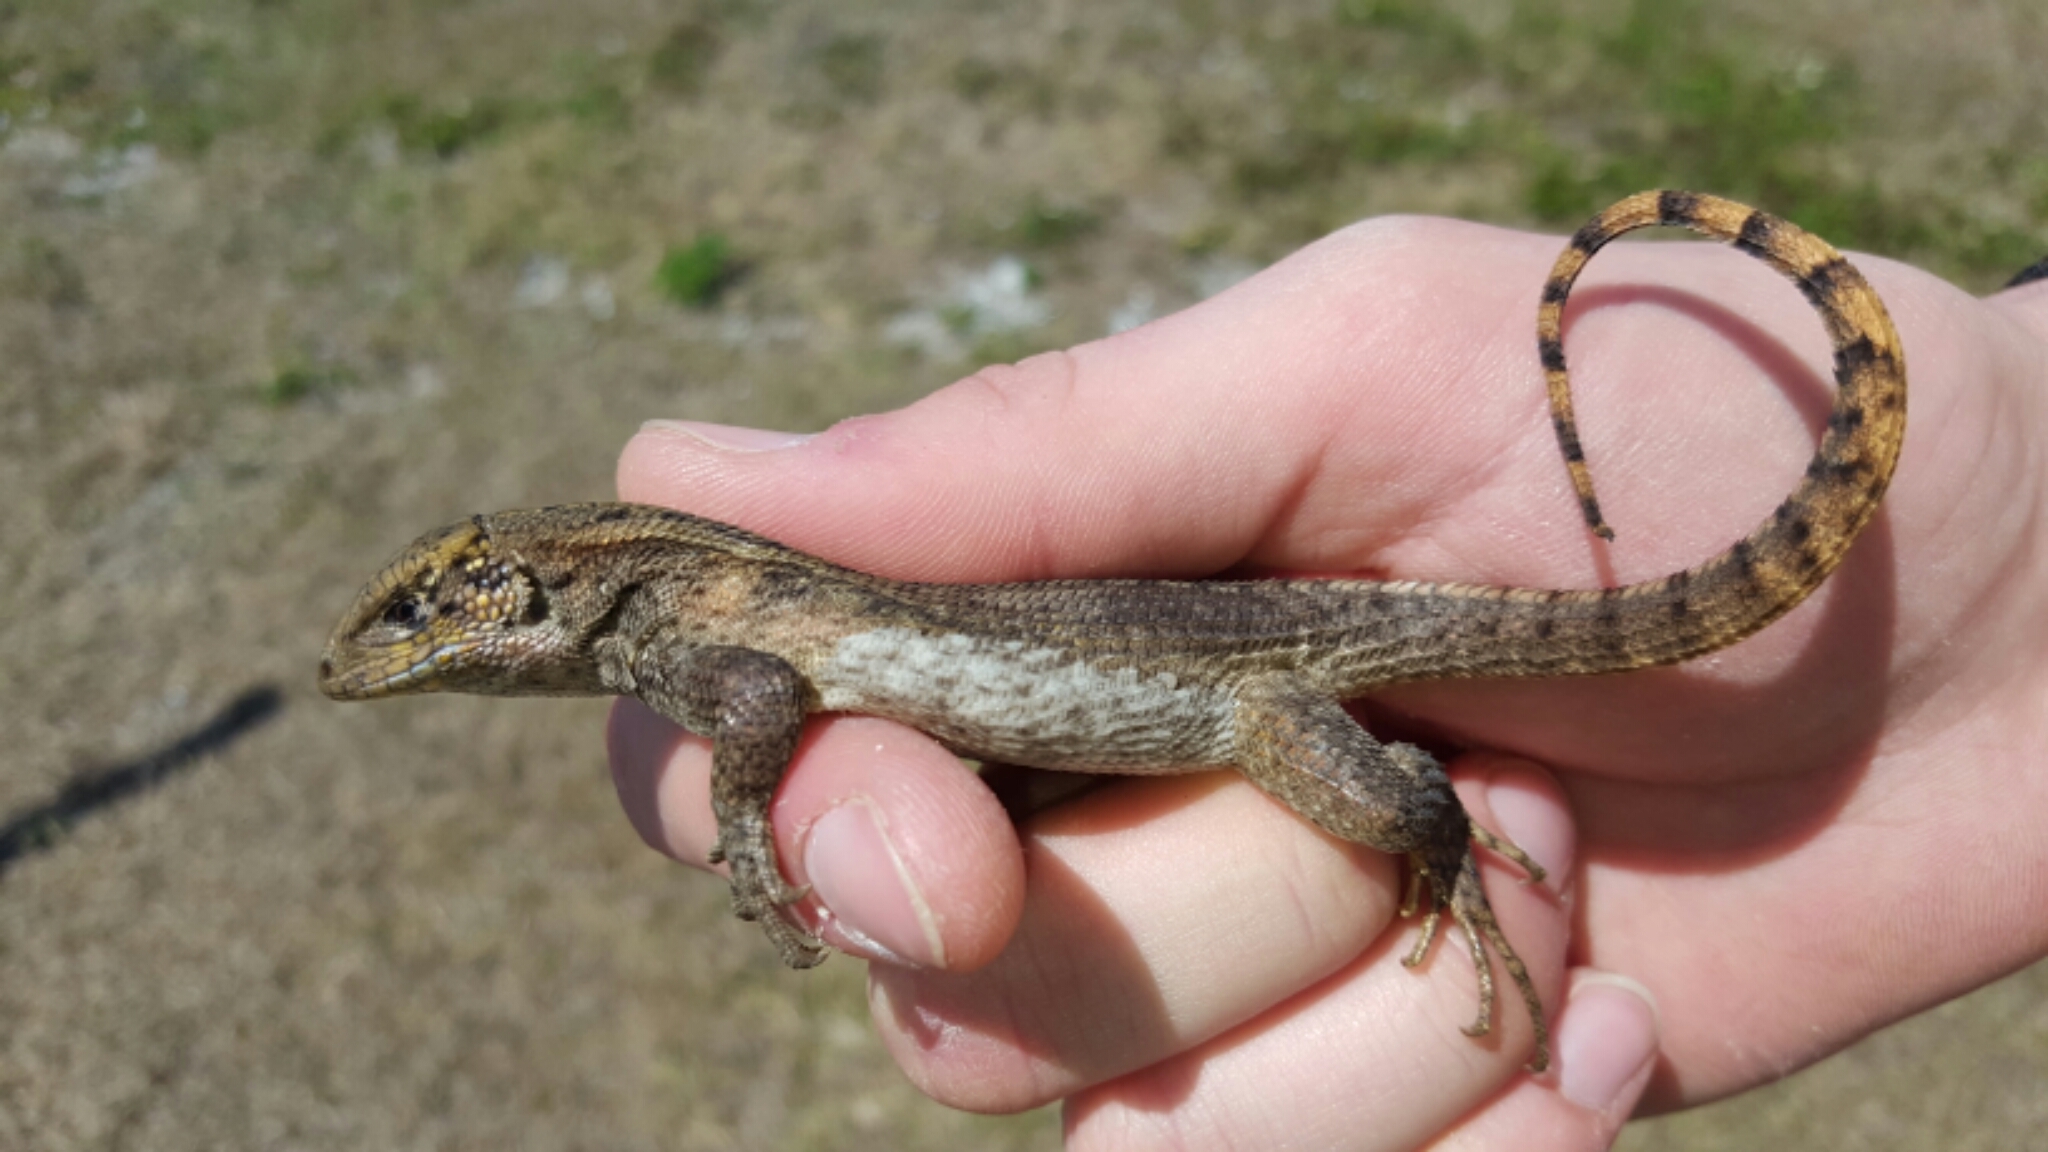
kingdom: Animalia
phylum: Chordata
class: Squamata
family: Leiocephalidae
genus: Leiocephalus
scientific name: Leiocephalus carinatus
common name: Northern curly-tailed lizard
